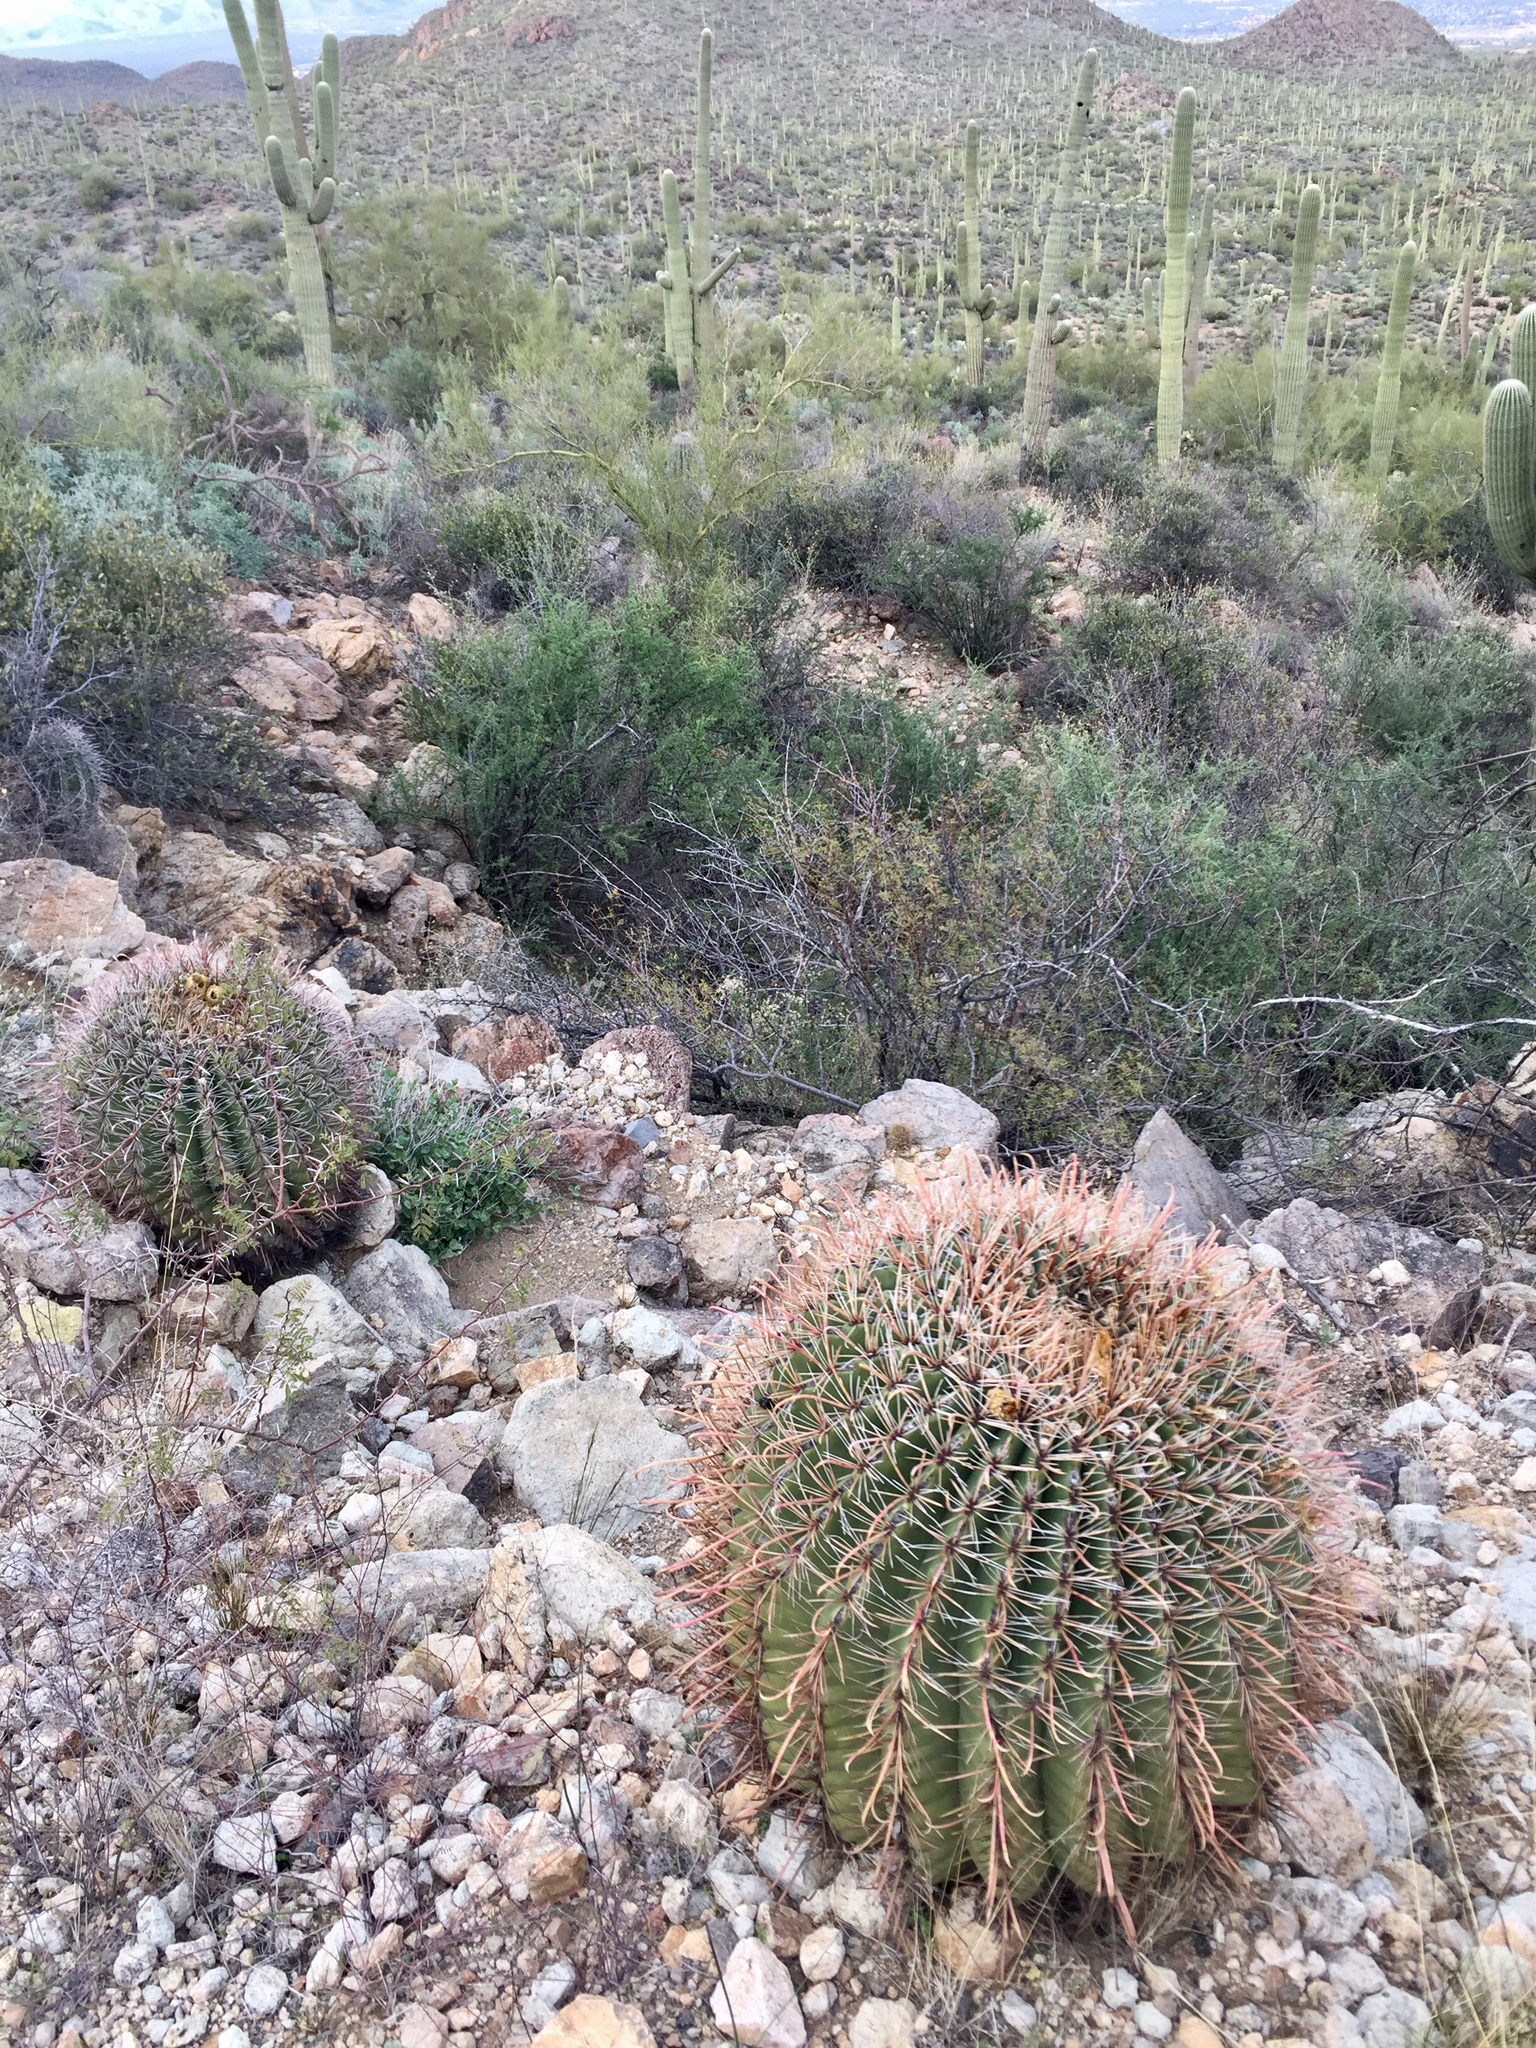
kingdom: Plantae
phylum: Tracheophyta
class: Magnoliopsida
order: Caryophyllales
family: Cactaceae
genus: Ferocactus
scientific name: Ferocactus wislizeni
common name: Candy barrel cactus
